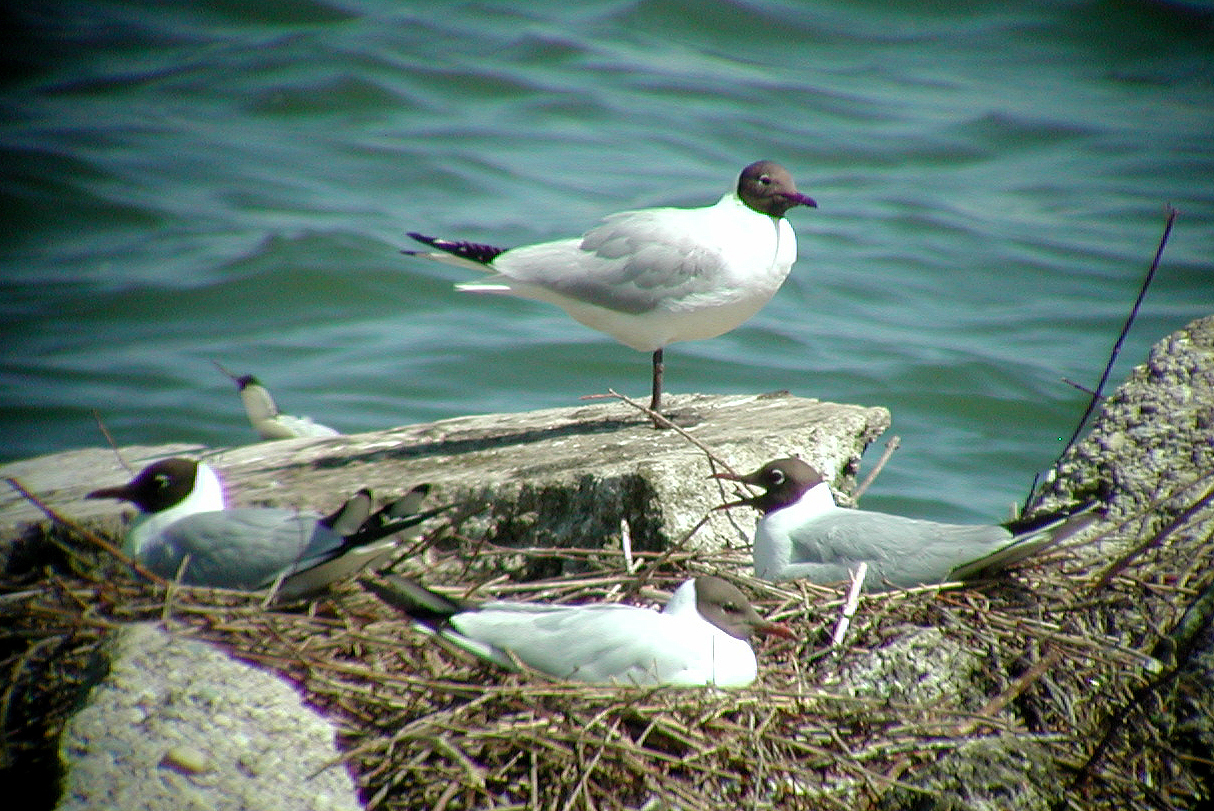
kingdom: Animalia
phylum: Chordata
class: Aves
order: Charadriiformes
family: Laridae
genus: Chroicocephalus
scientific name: Chroicocephalus ridibundus
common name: Black-headed gull
